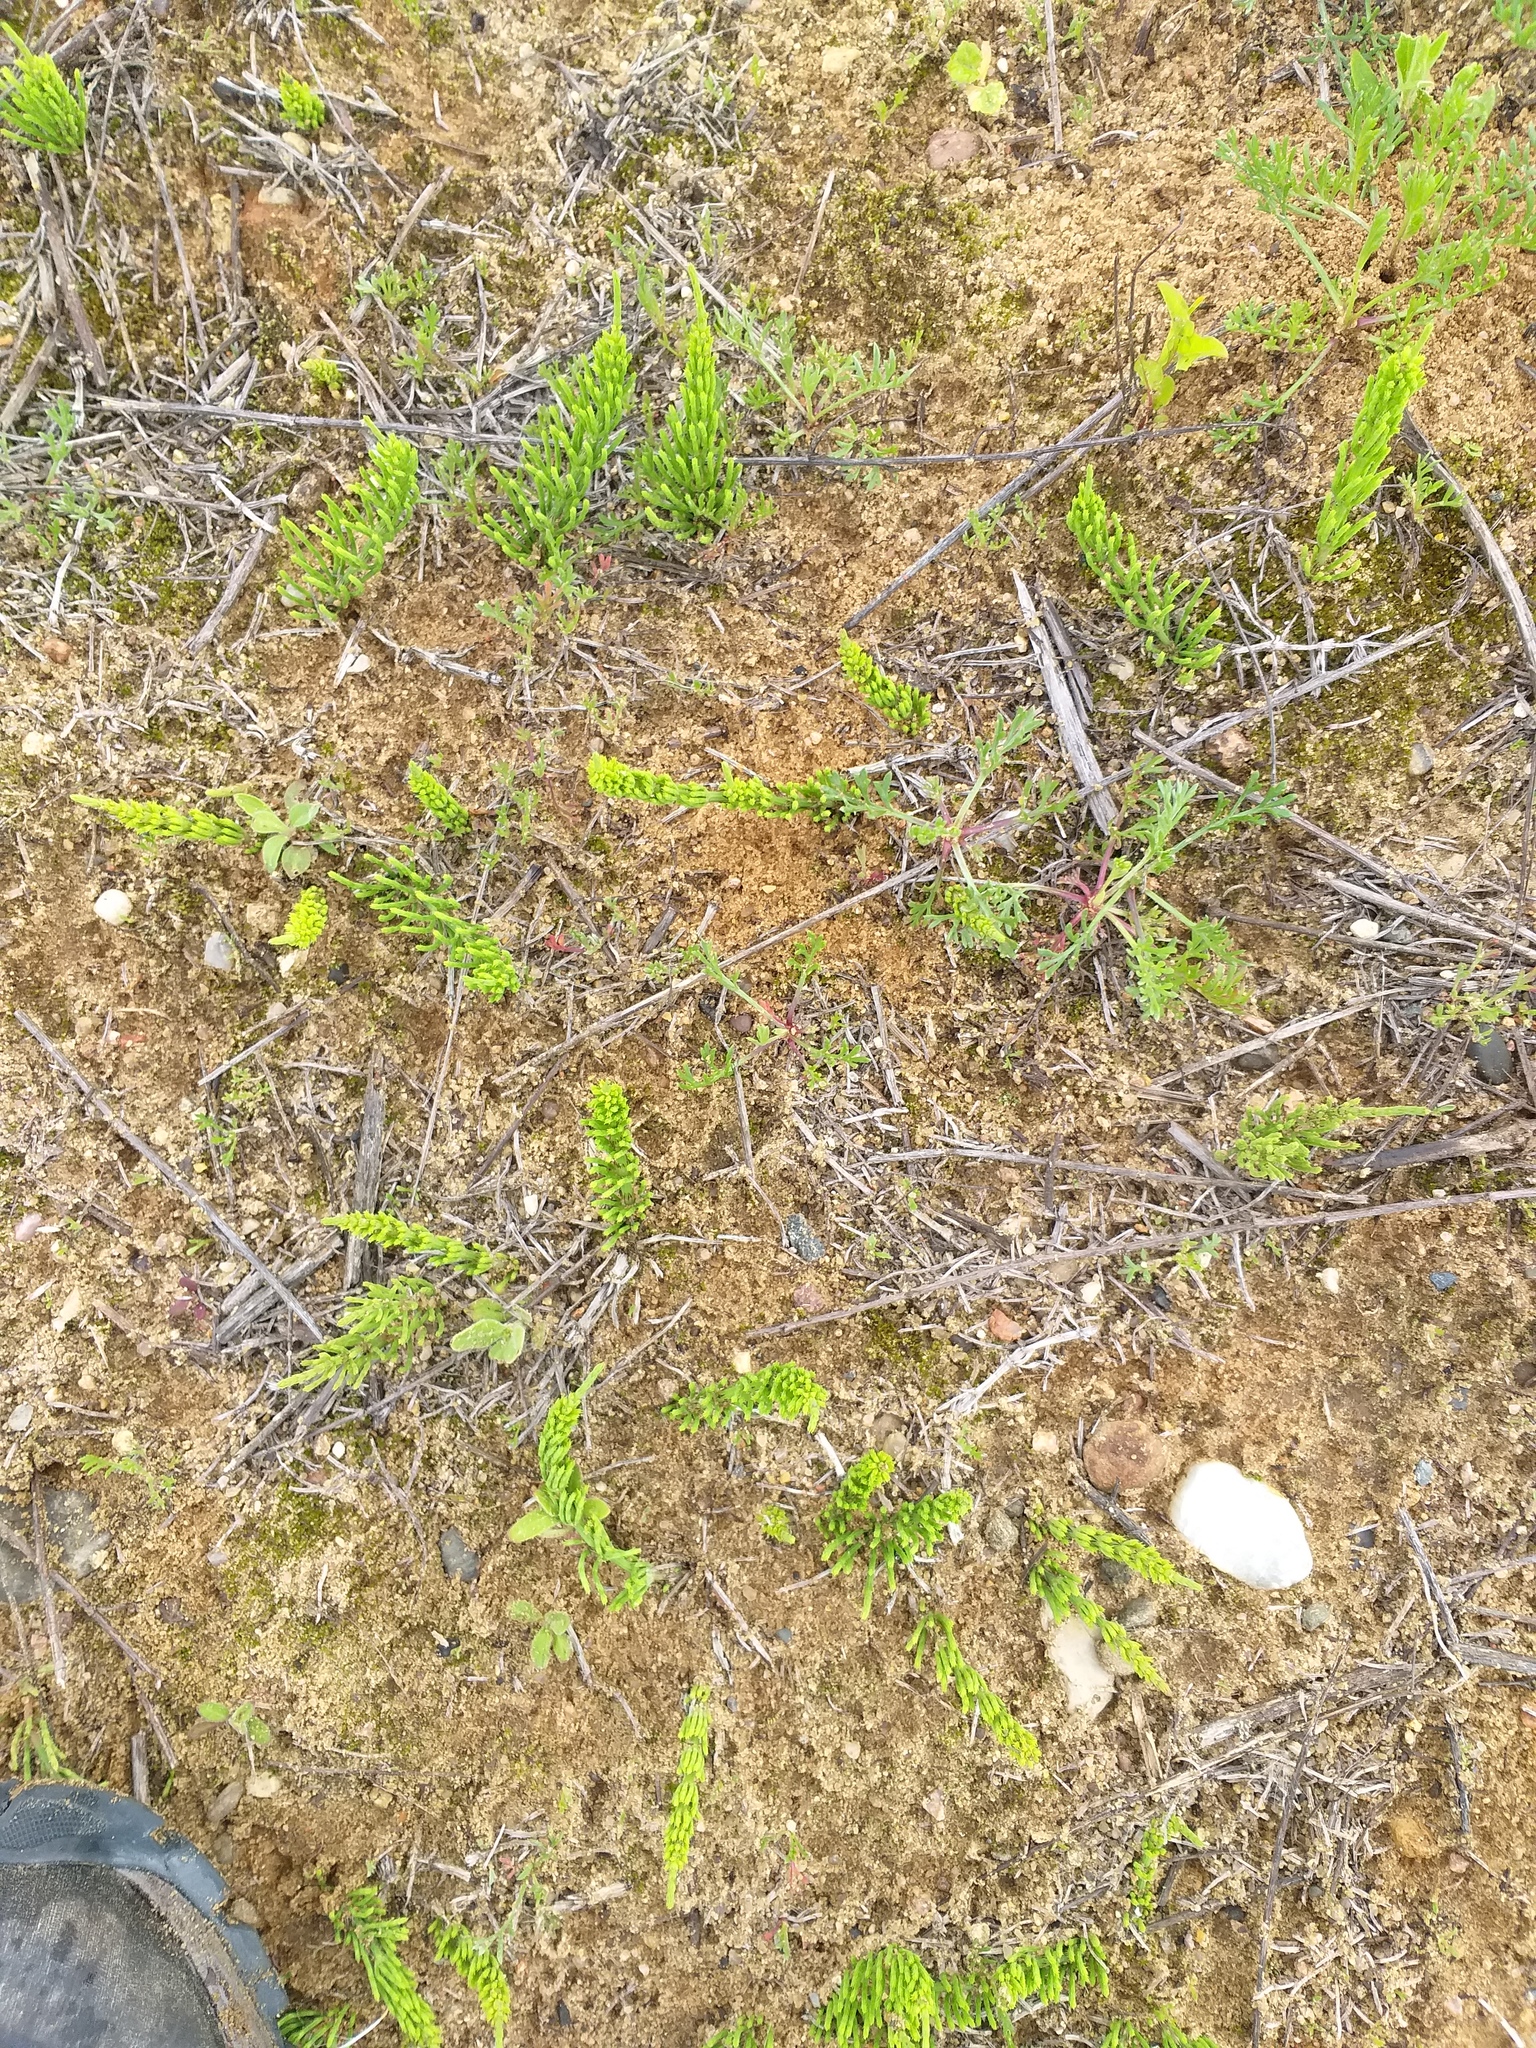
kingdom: Plantae
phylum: Tracheophyta
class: Polypodiopsida
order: Equisetales
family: Equisetaceae
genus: Equisetum
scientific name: Equisetum arvense
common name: Field horsetail
